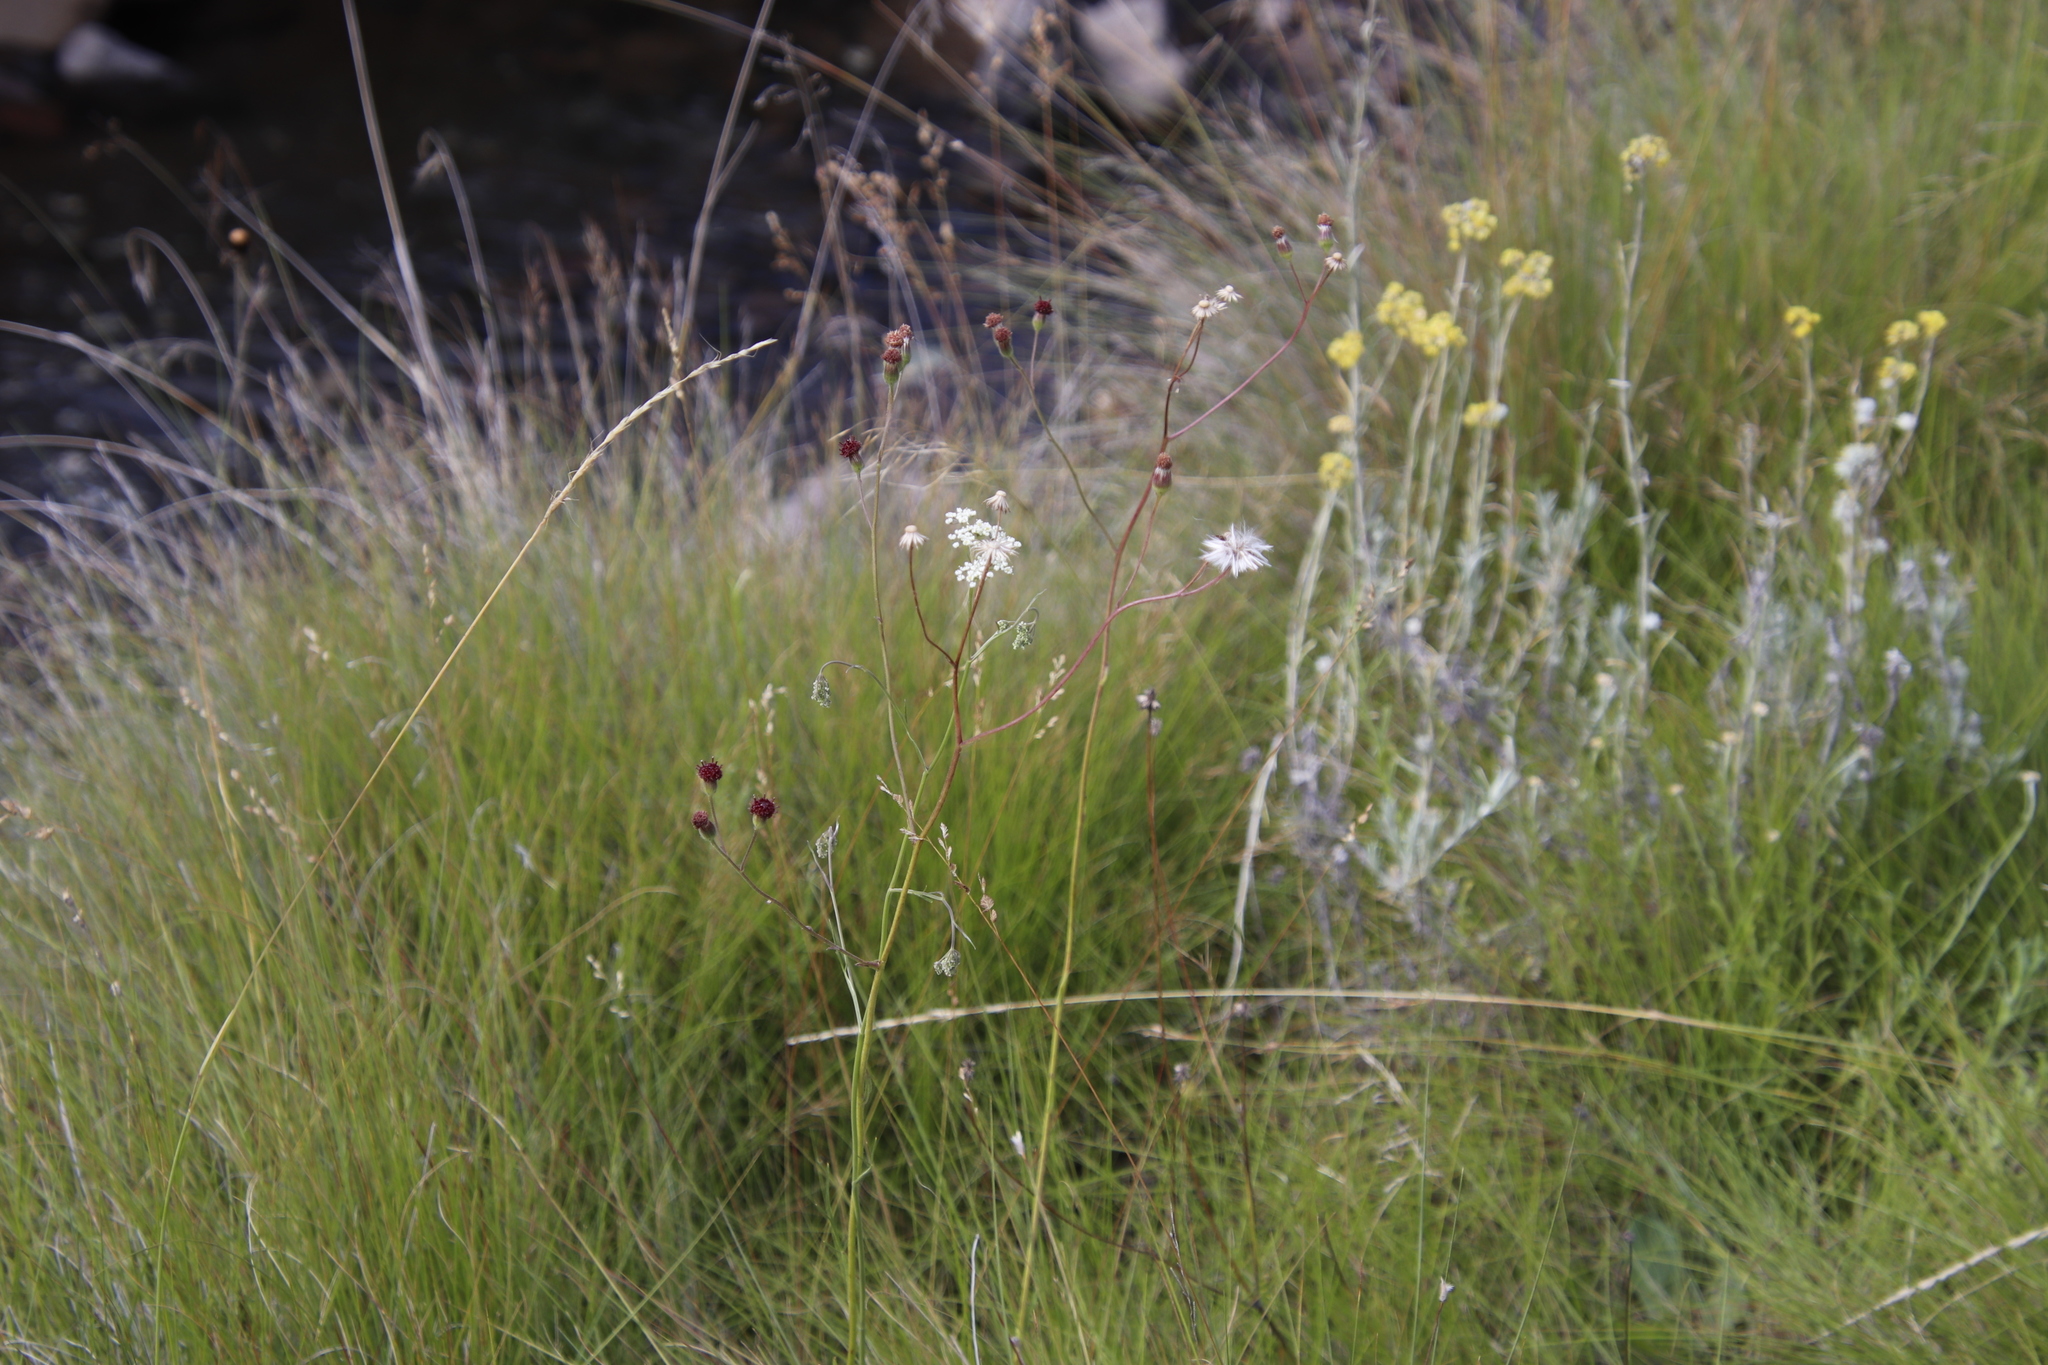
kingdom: Plantae
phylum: Tracheophyta
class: Magnoliopsida
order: Asterales
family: Asteraceae
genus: Senecio
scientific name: Senecio erubescens
